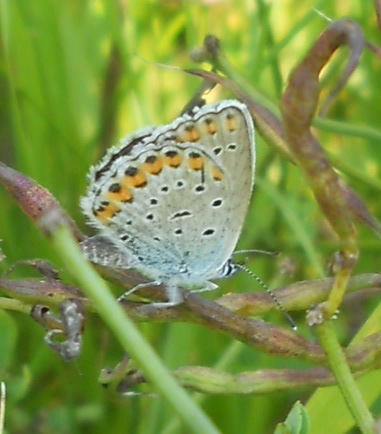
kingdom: Animalia
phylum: Arthropoda
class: Insecta
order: Lepidoptera
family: Lycaenidae
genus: Plebejus
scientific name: Plebejus argyrognomon
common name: Reverdin's blue
